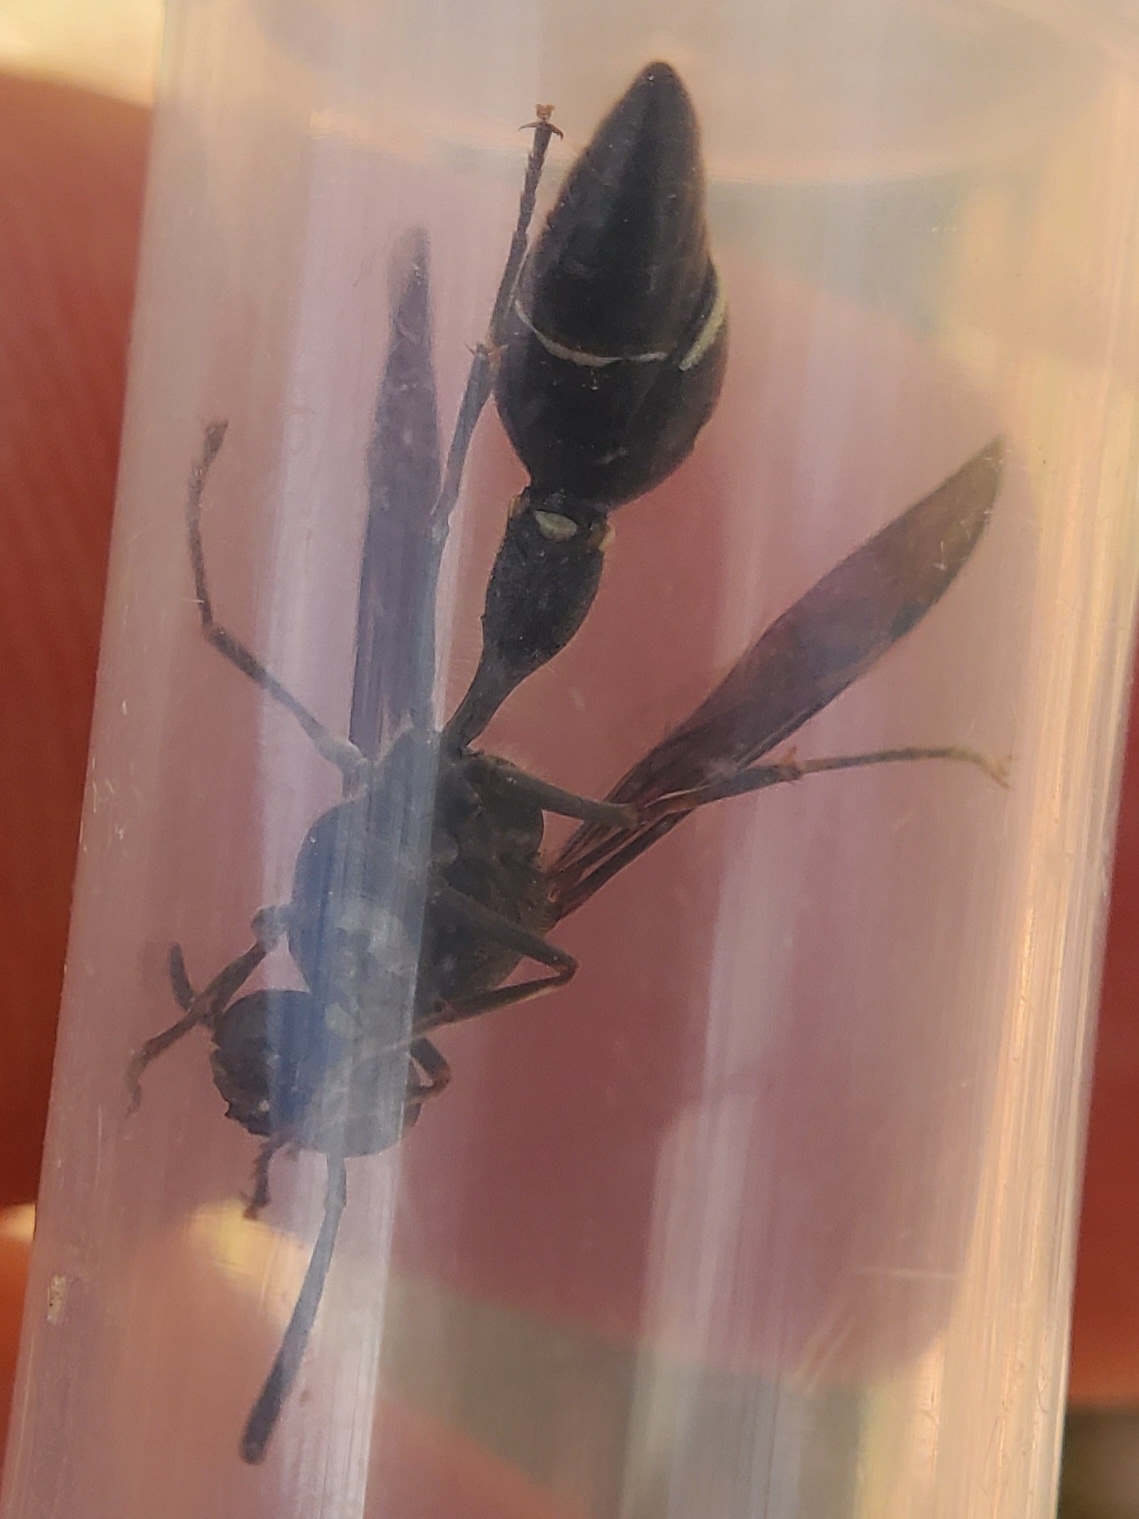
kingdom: Animalia
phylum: Arthropoda
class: Insecta
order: Hymenoptera
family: Vespidae
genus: Eumenes
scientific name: Eumenes fraternus
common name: Fraternal potter wasp
